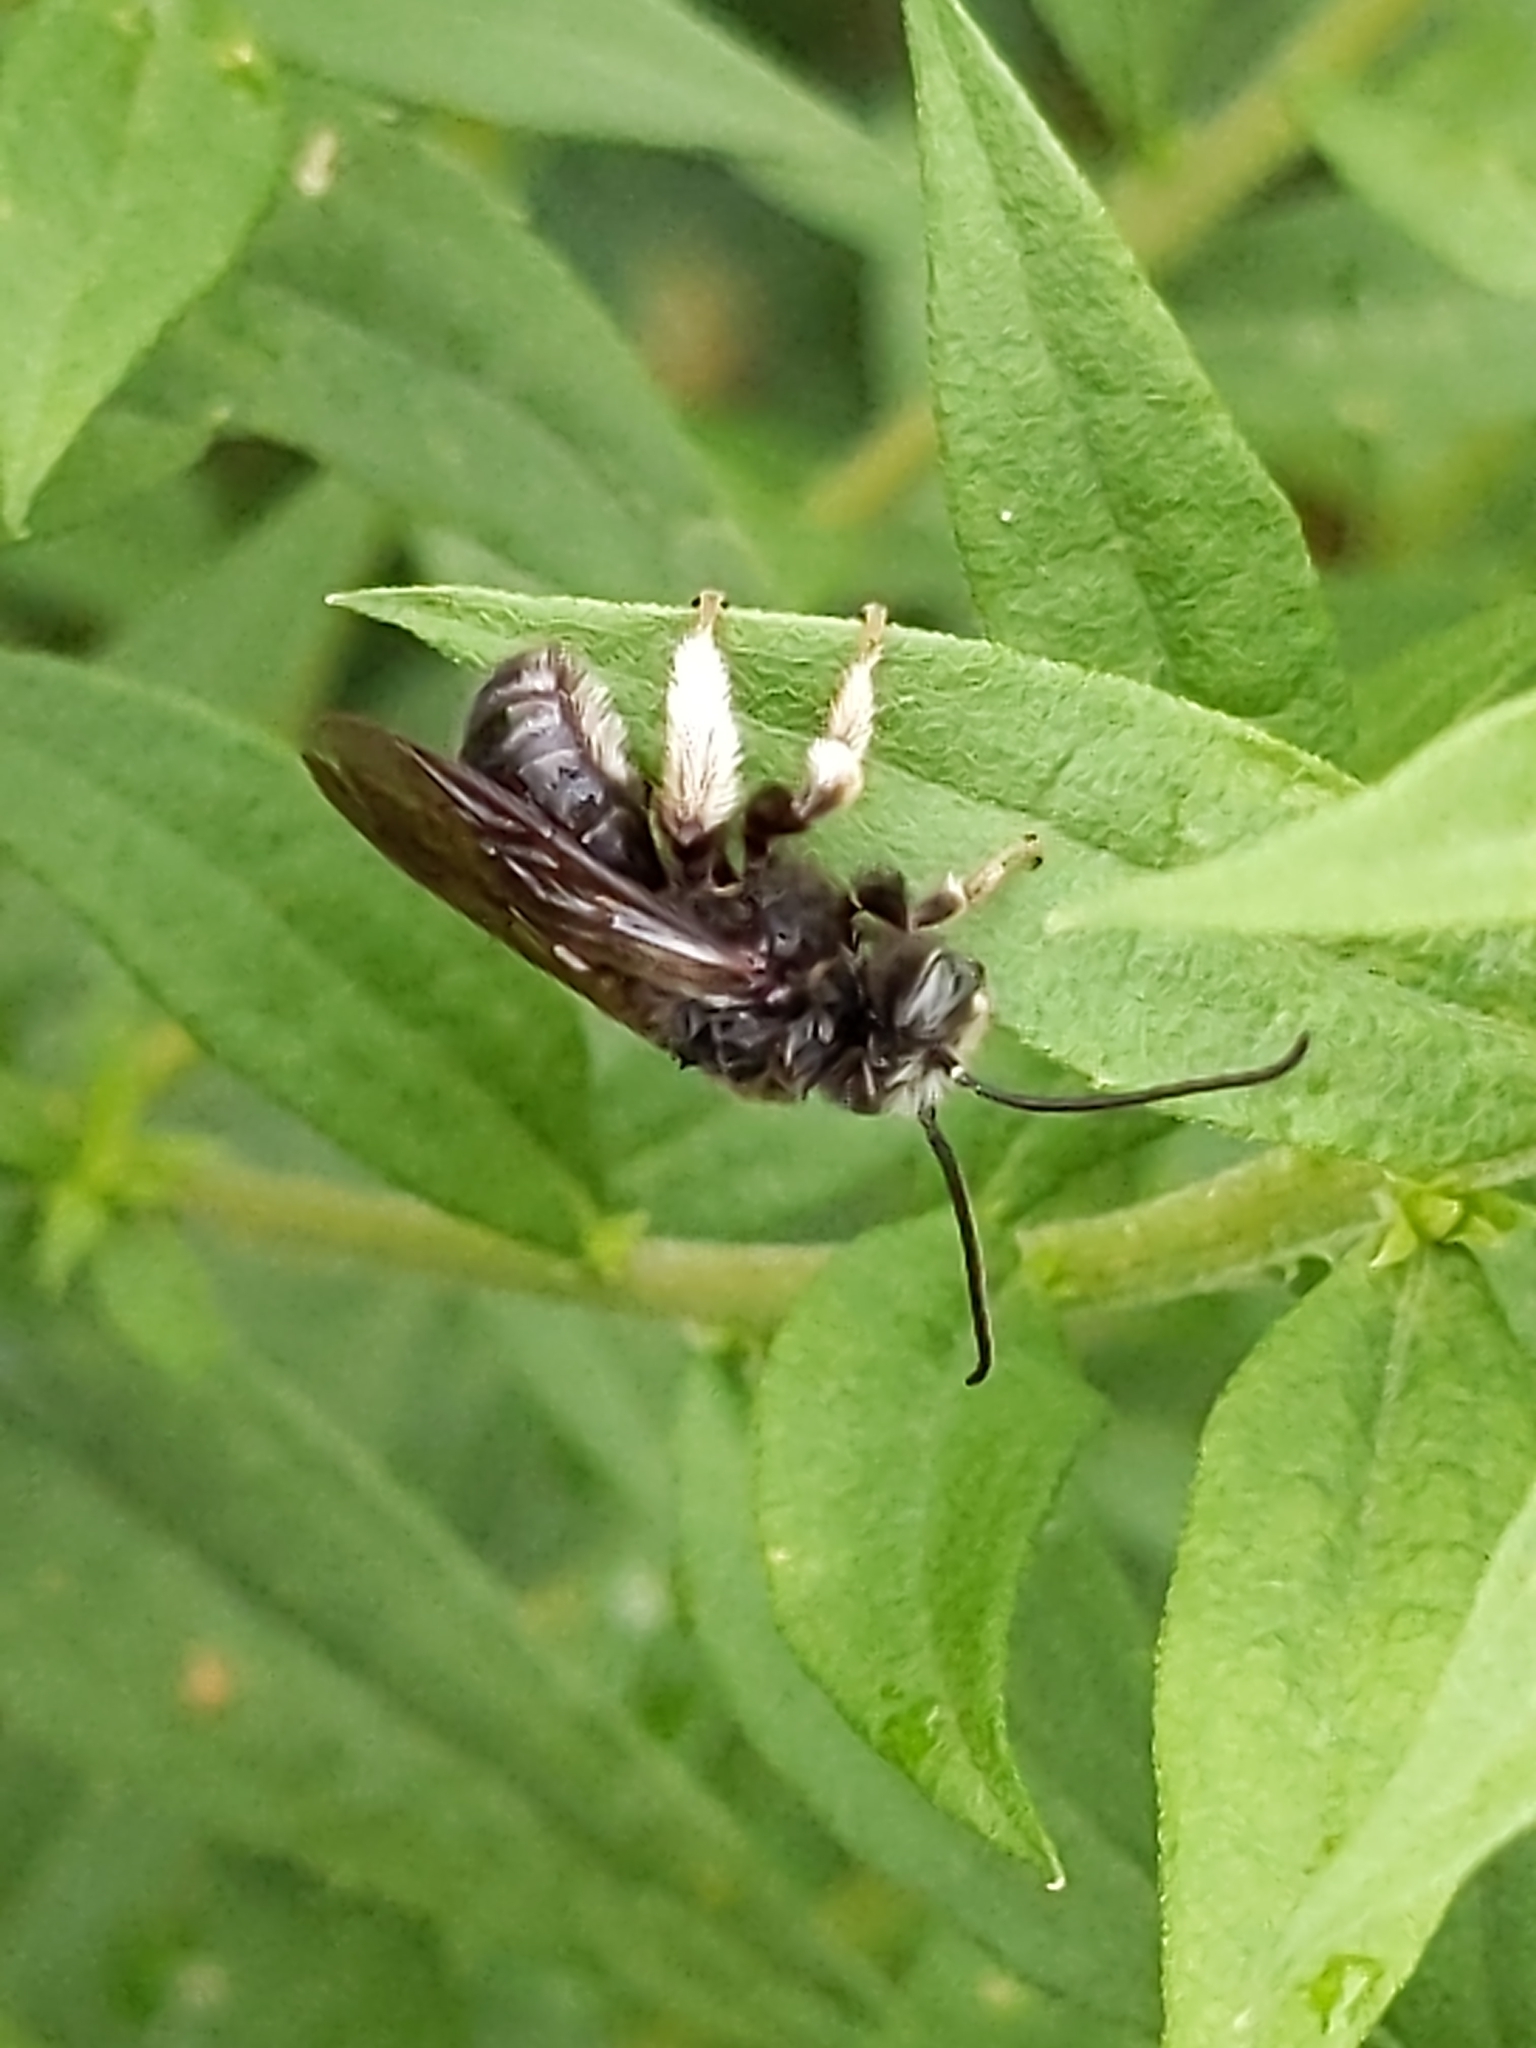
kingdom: Animalia
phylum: Arthropoda
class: Insecta
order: Hymenoptera
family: Apidae
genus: Melissodes
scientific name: Melissodes bimaculatus
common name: Two-spotted long-horned bee
